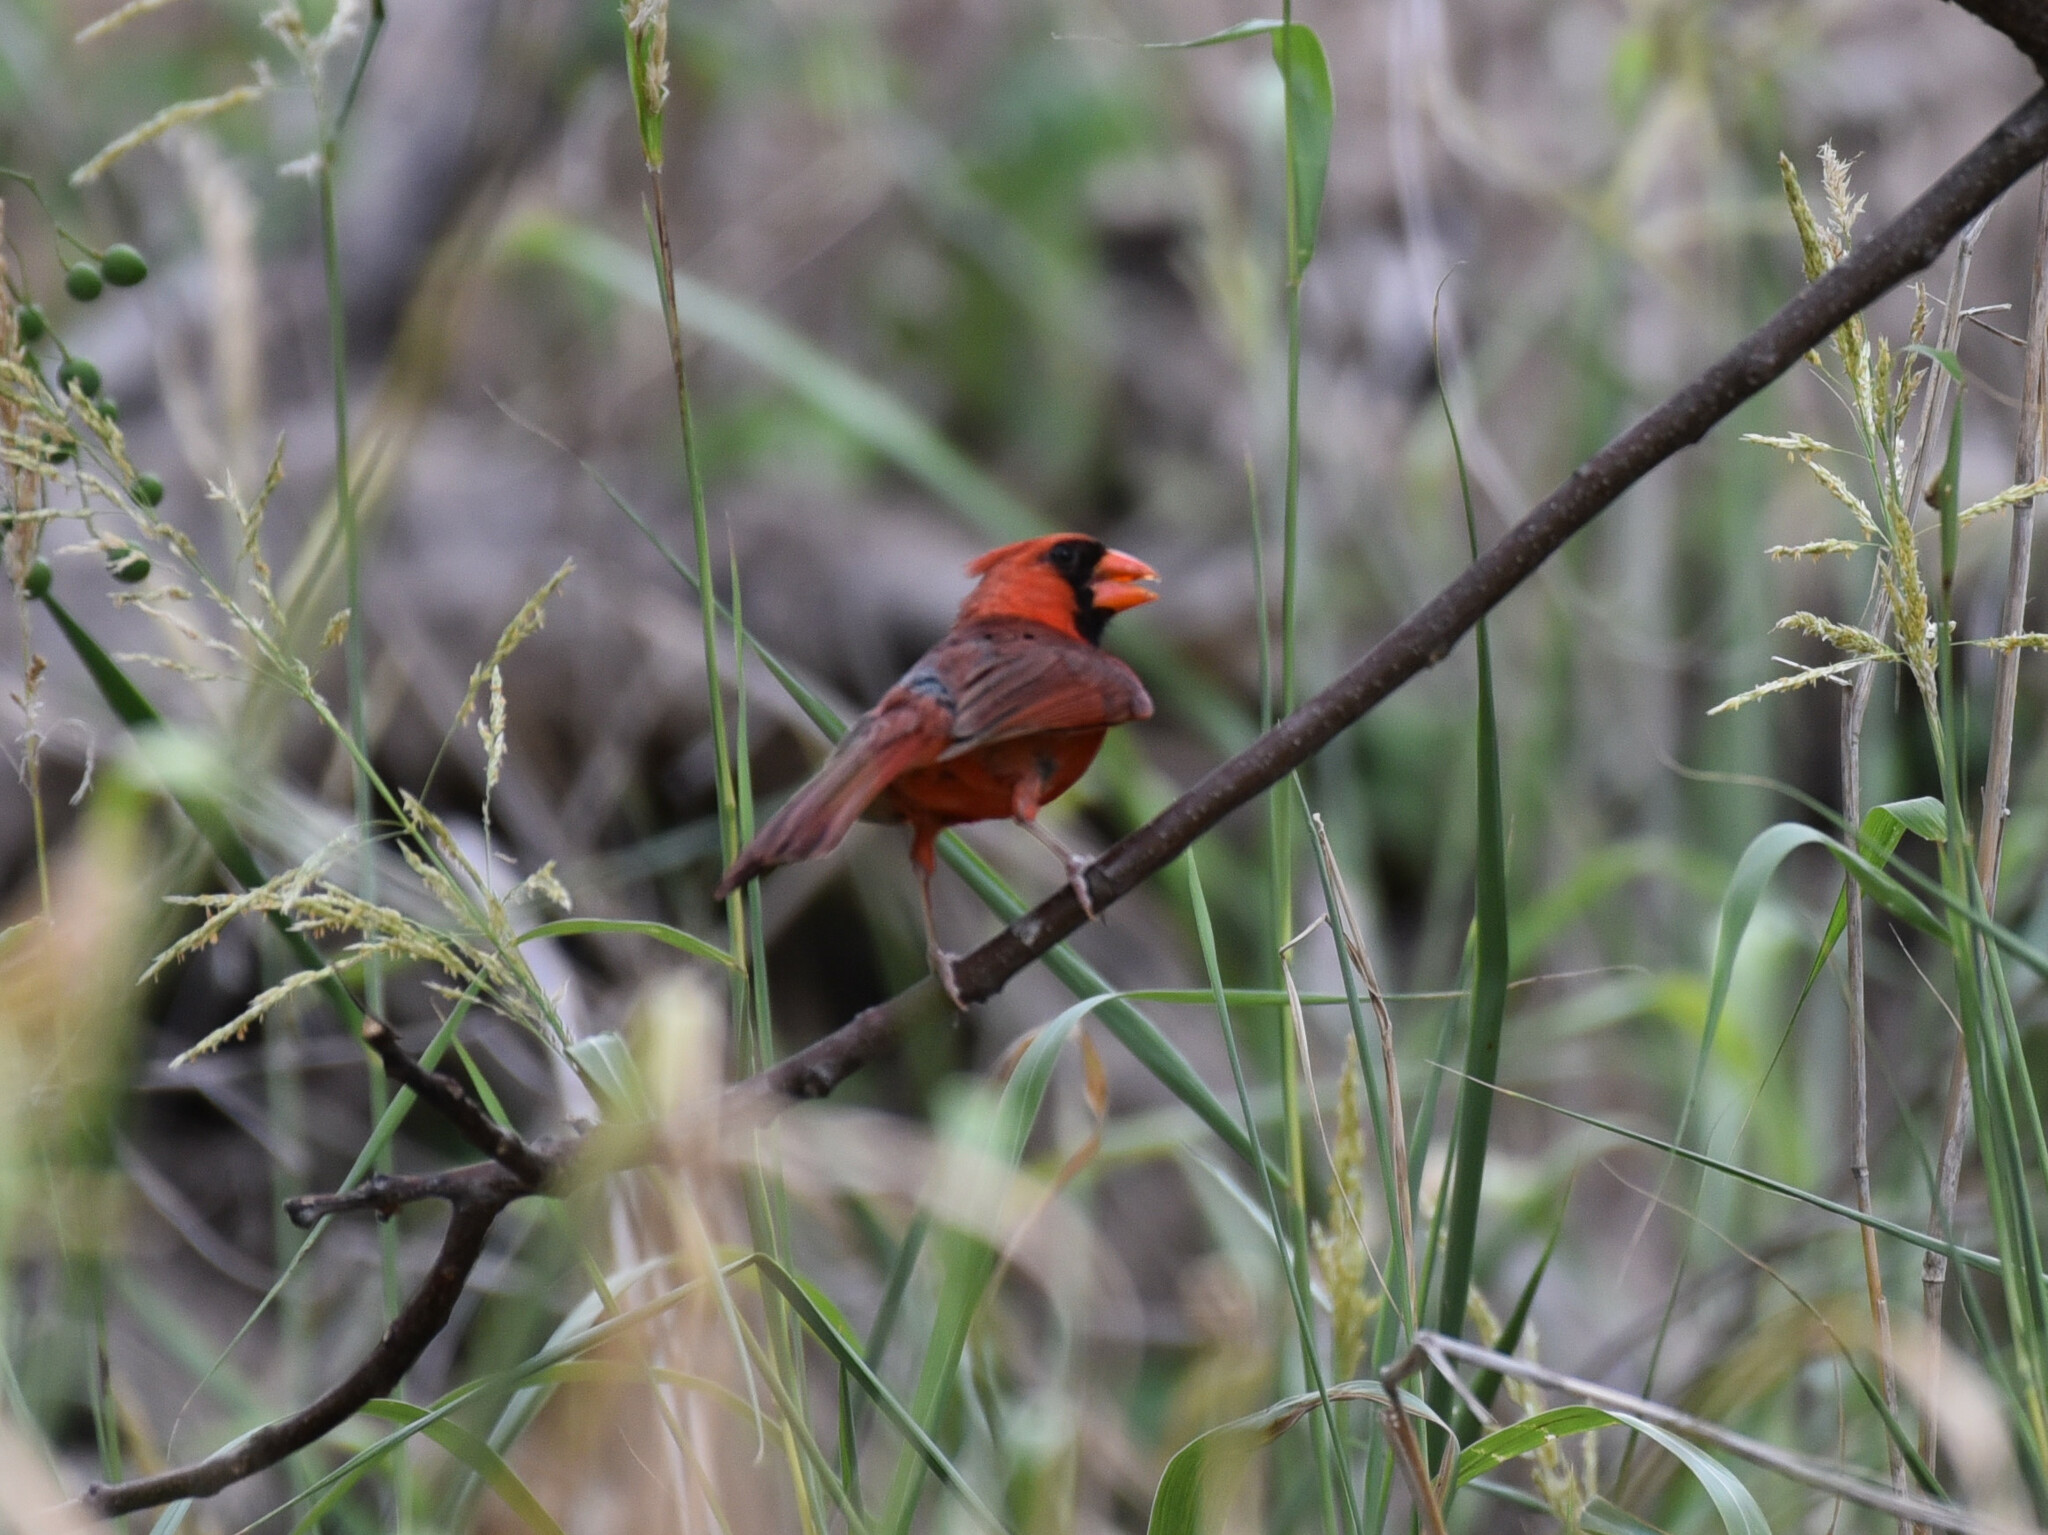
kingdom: Animalia
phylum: Chordata
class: Aves
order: Passeriformes
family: Cardinalidae
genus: Cardinalis
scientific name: Cardinalis cardinalis
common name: Northern cardinal
